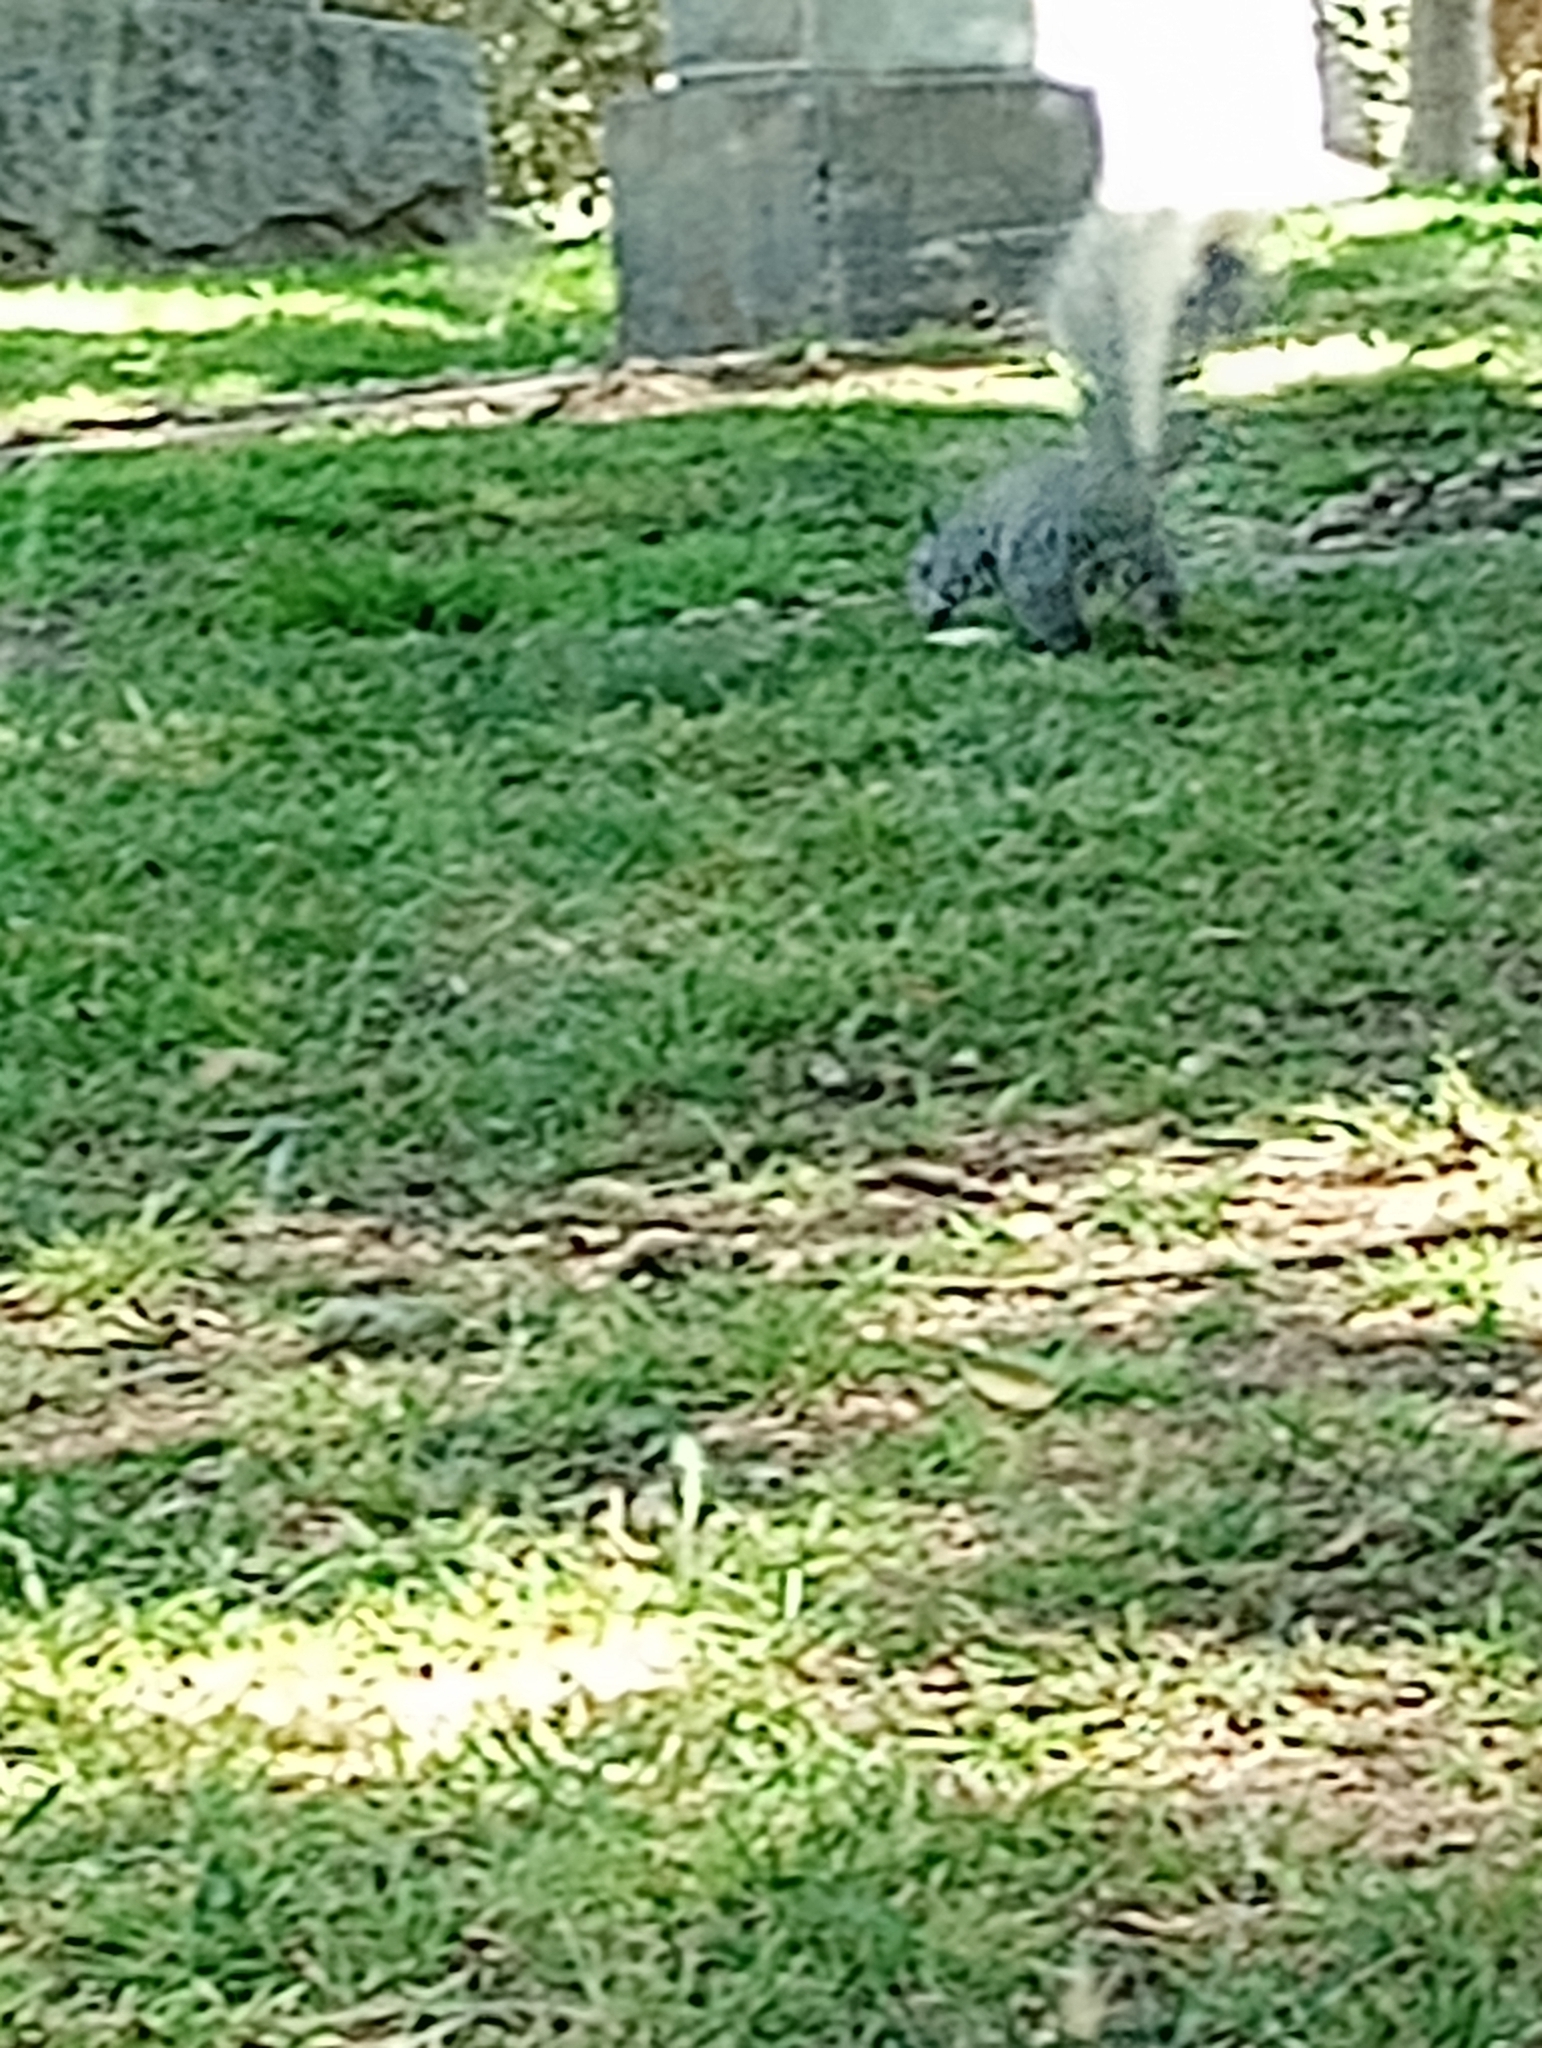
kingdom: Animalia
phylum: Chordata
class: Mammalia
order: Rodentia
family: Sciuridae
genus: Sciurus
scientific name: Sciurus griseus
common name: Western gray squirrel
